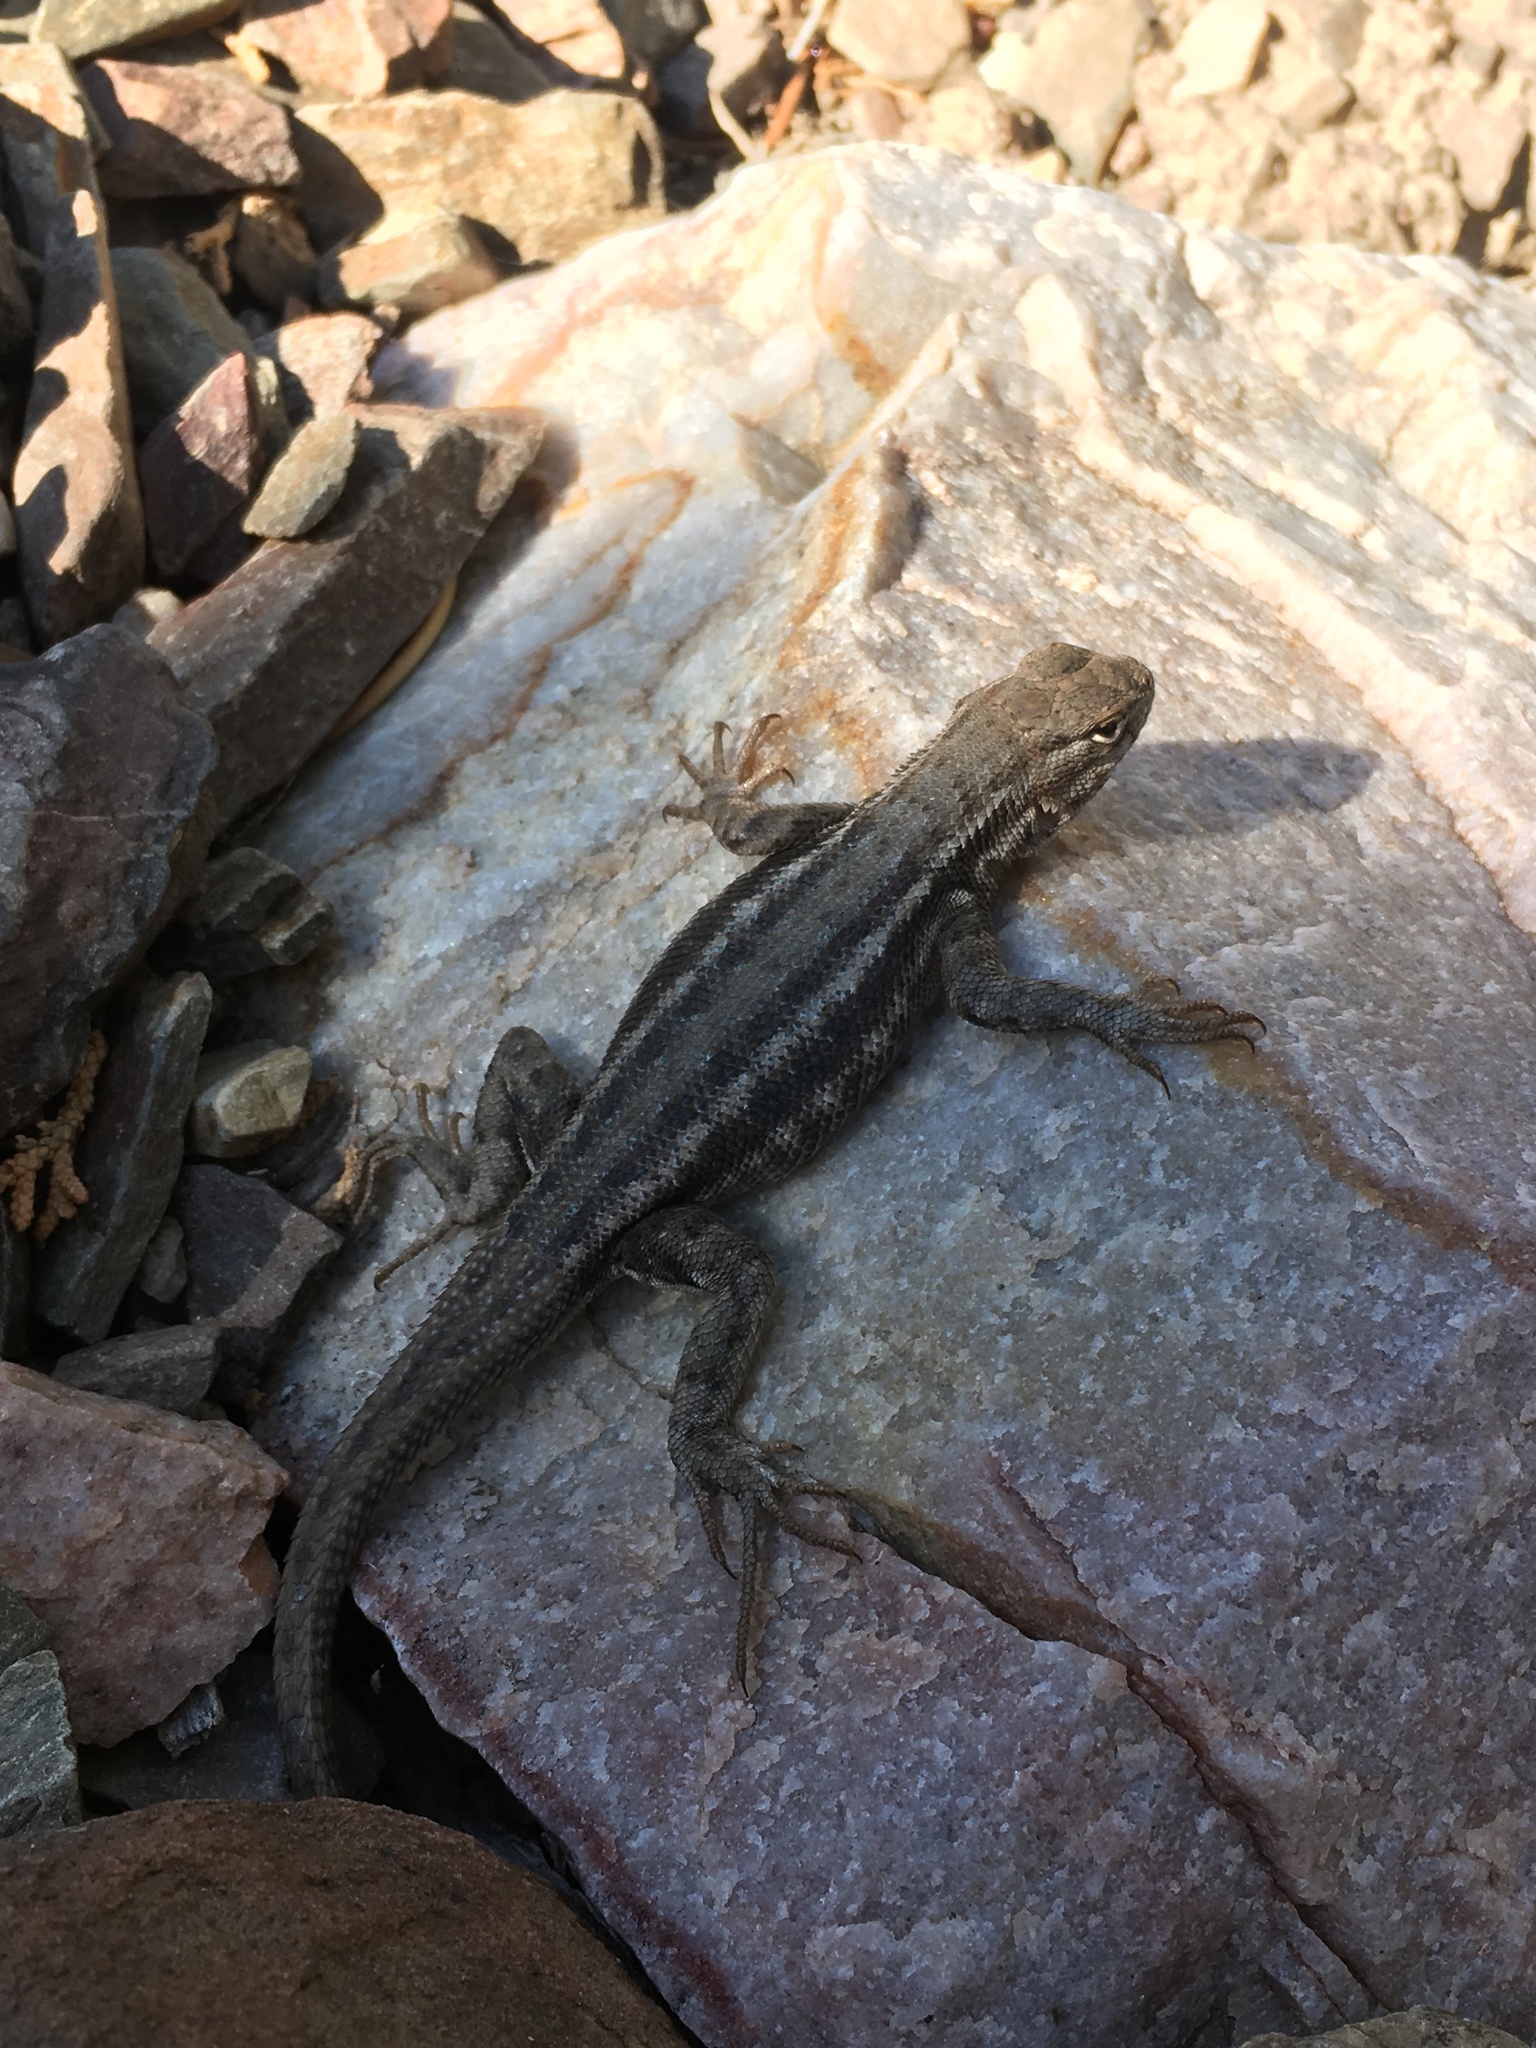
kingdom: Animalia
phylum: Chordata
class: Squamata
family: Phrynosomatidae
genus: Sceloporus
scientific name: Sceloporus graciosus
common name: Sagebrush lizard
